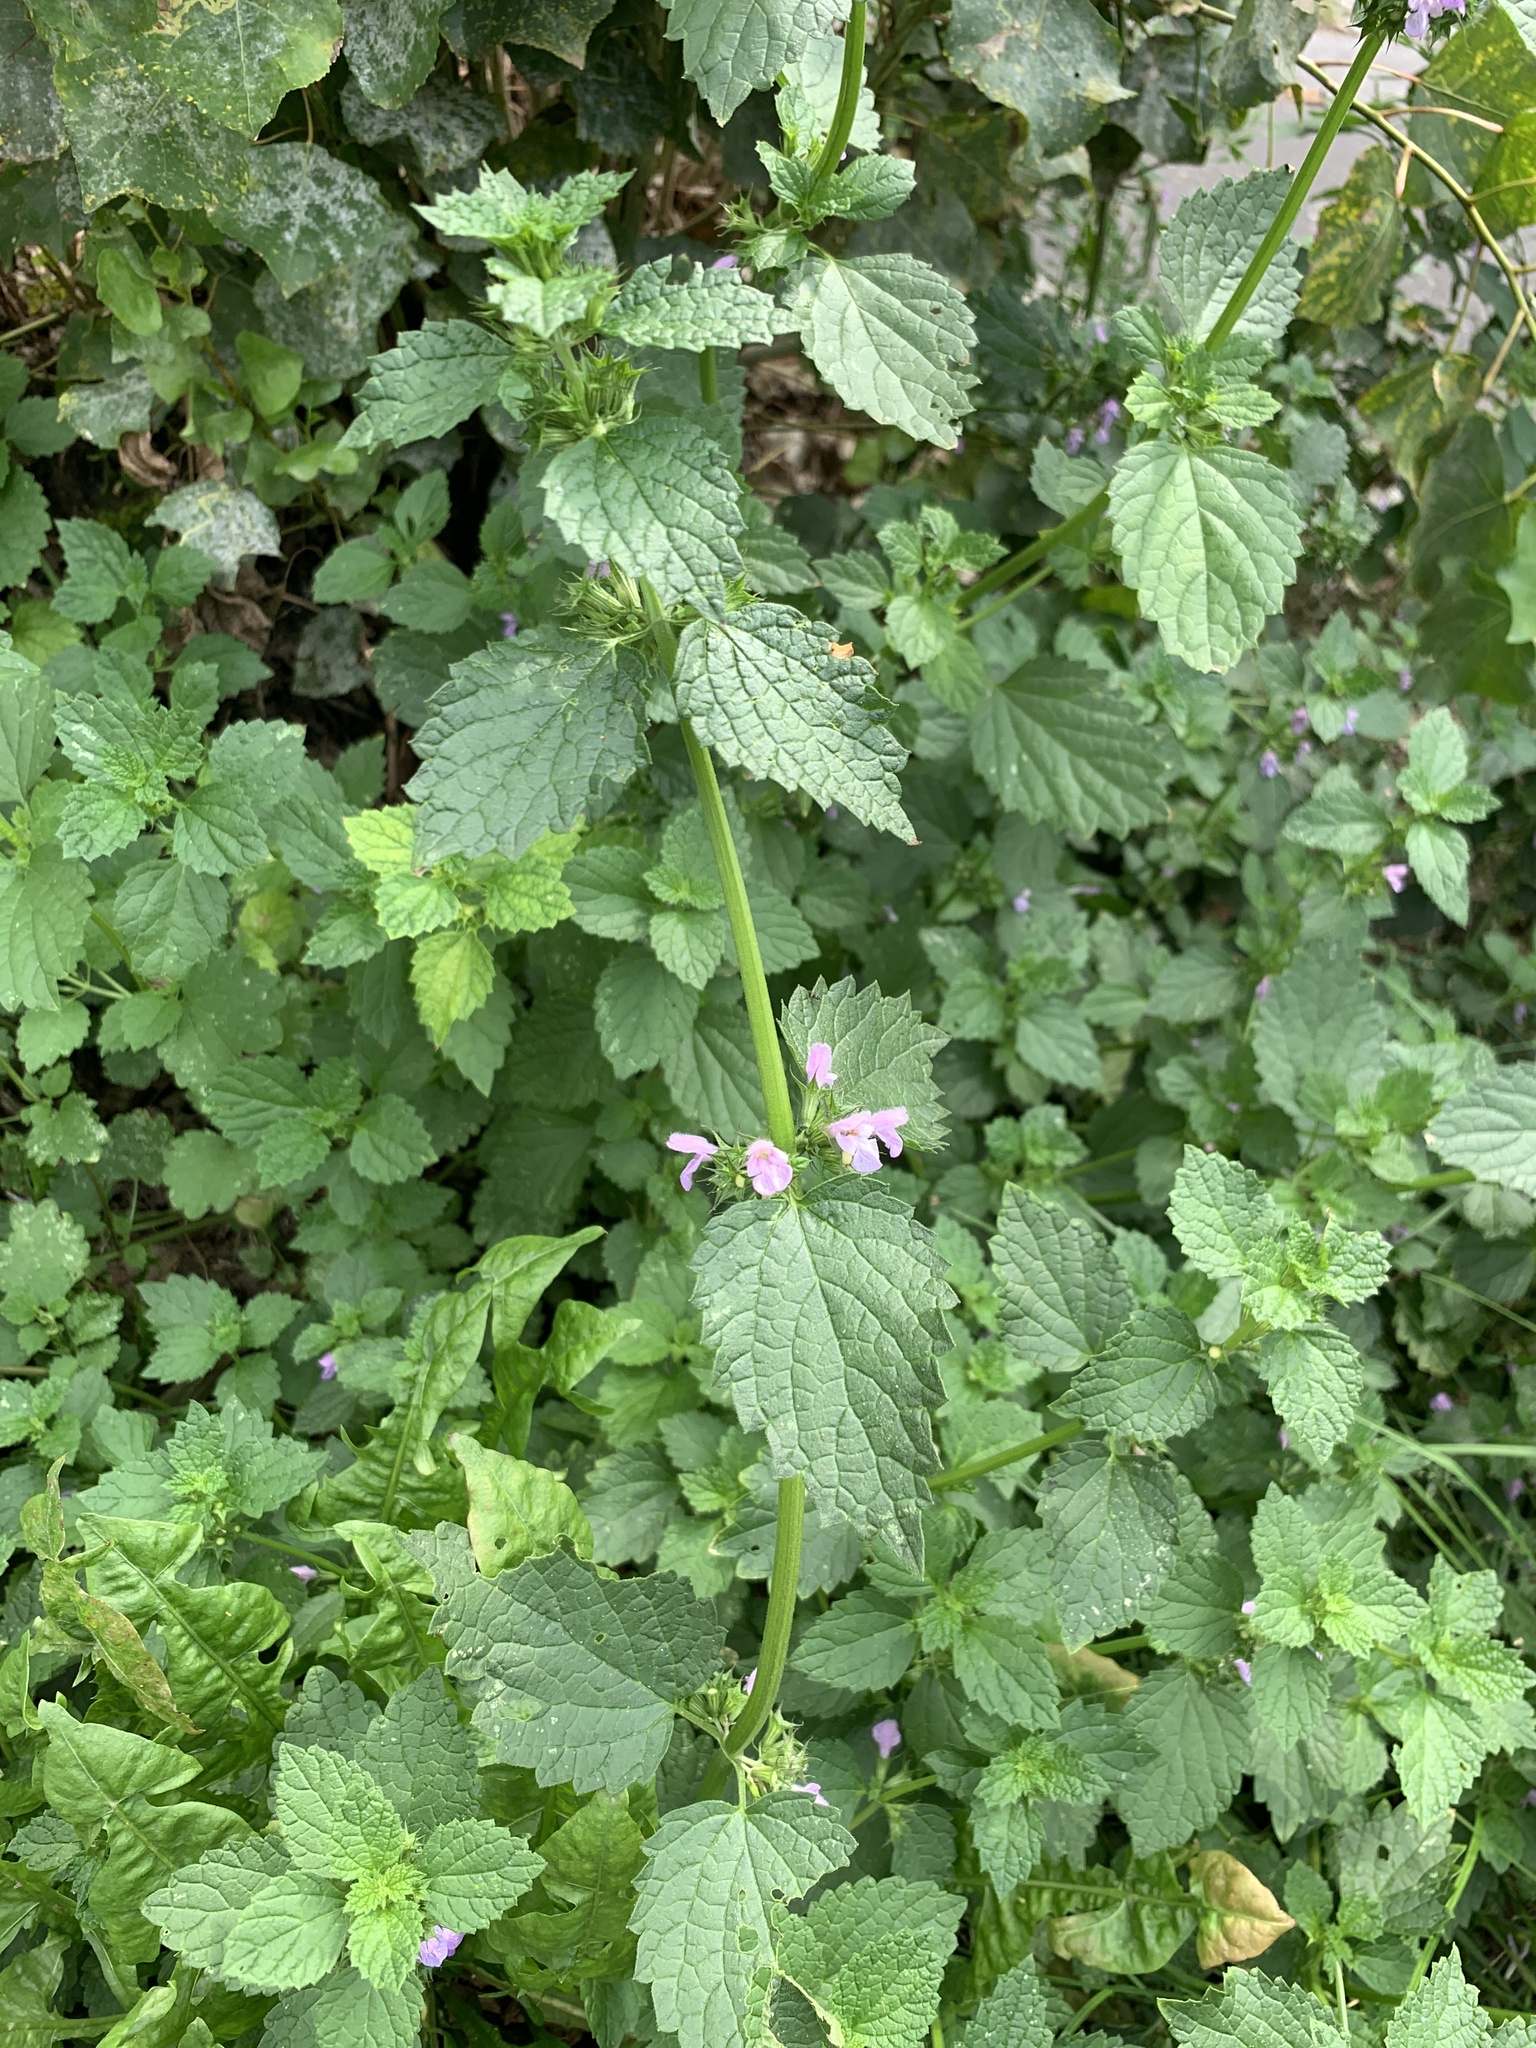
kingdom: Plantae
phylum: Tracheophyta
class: Magnoliopsida
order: Lamiales
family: Lamiaceae
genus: Ballota
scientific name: Ballota nigra
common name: Black horehound
